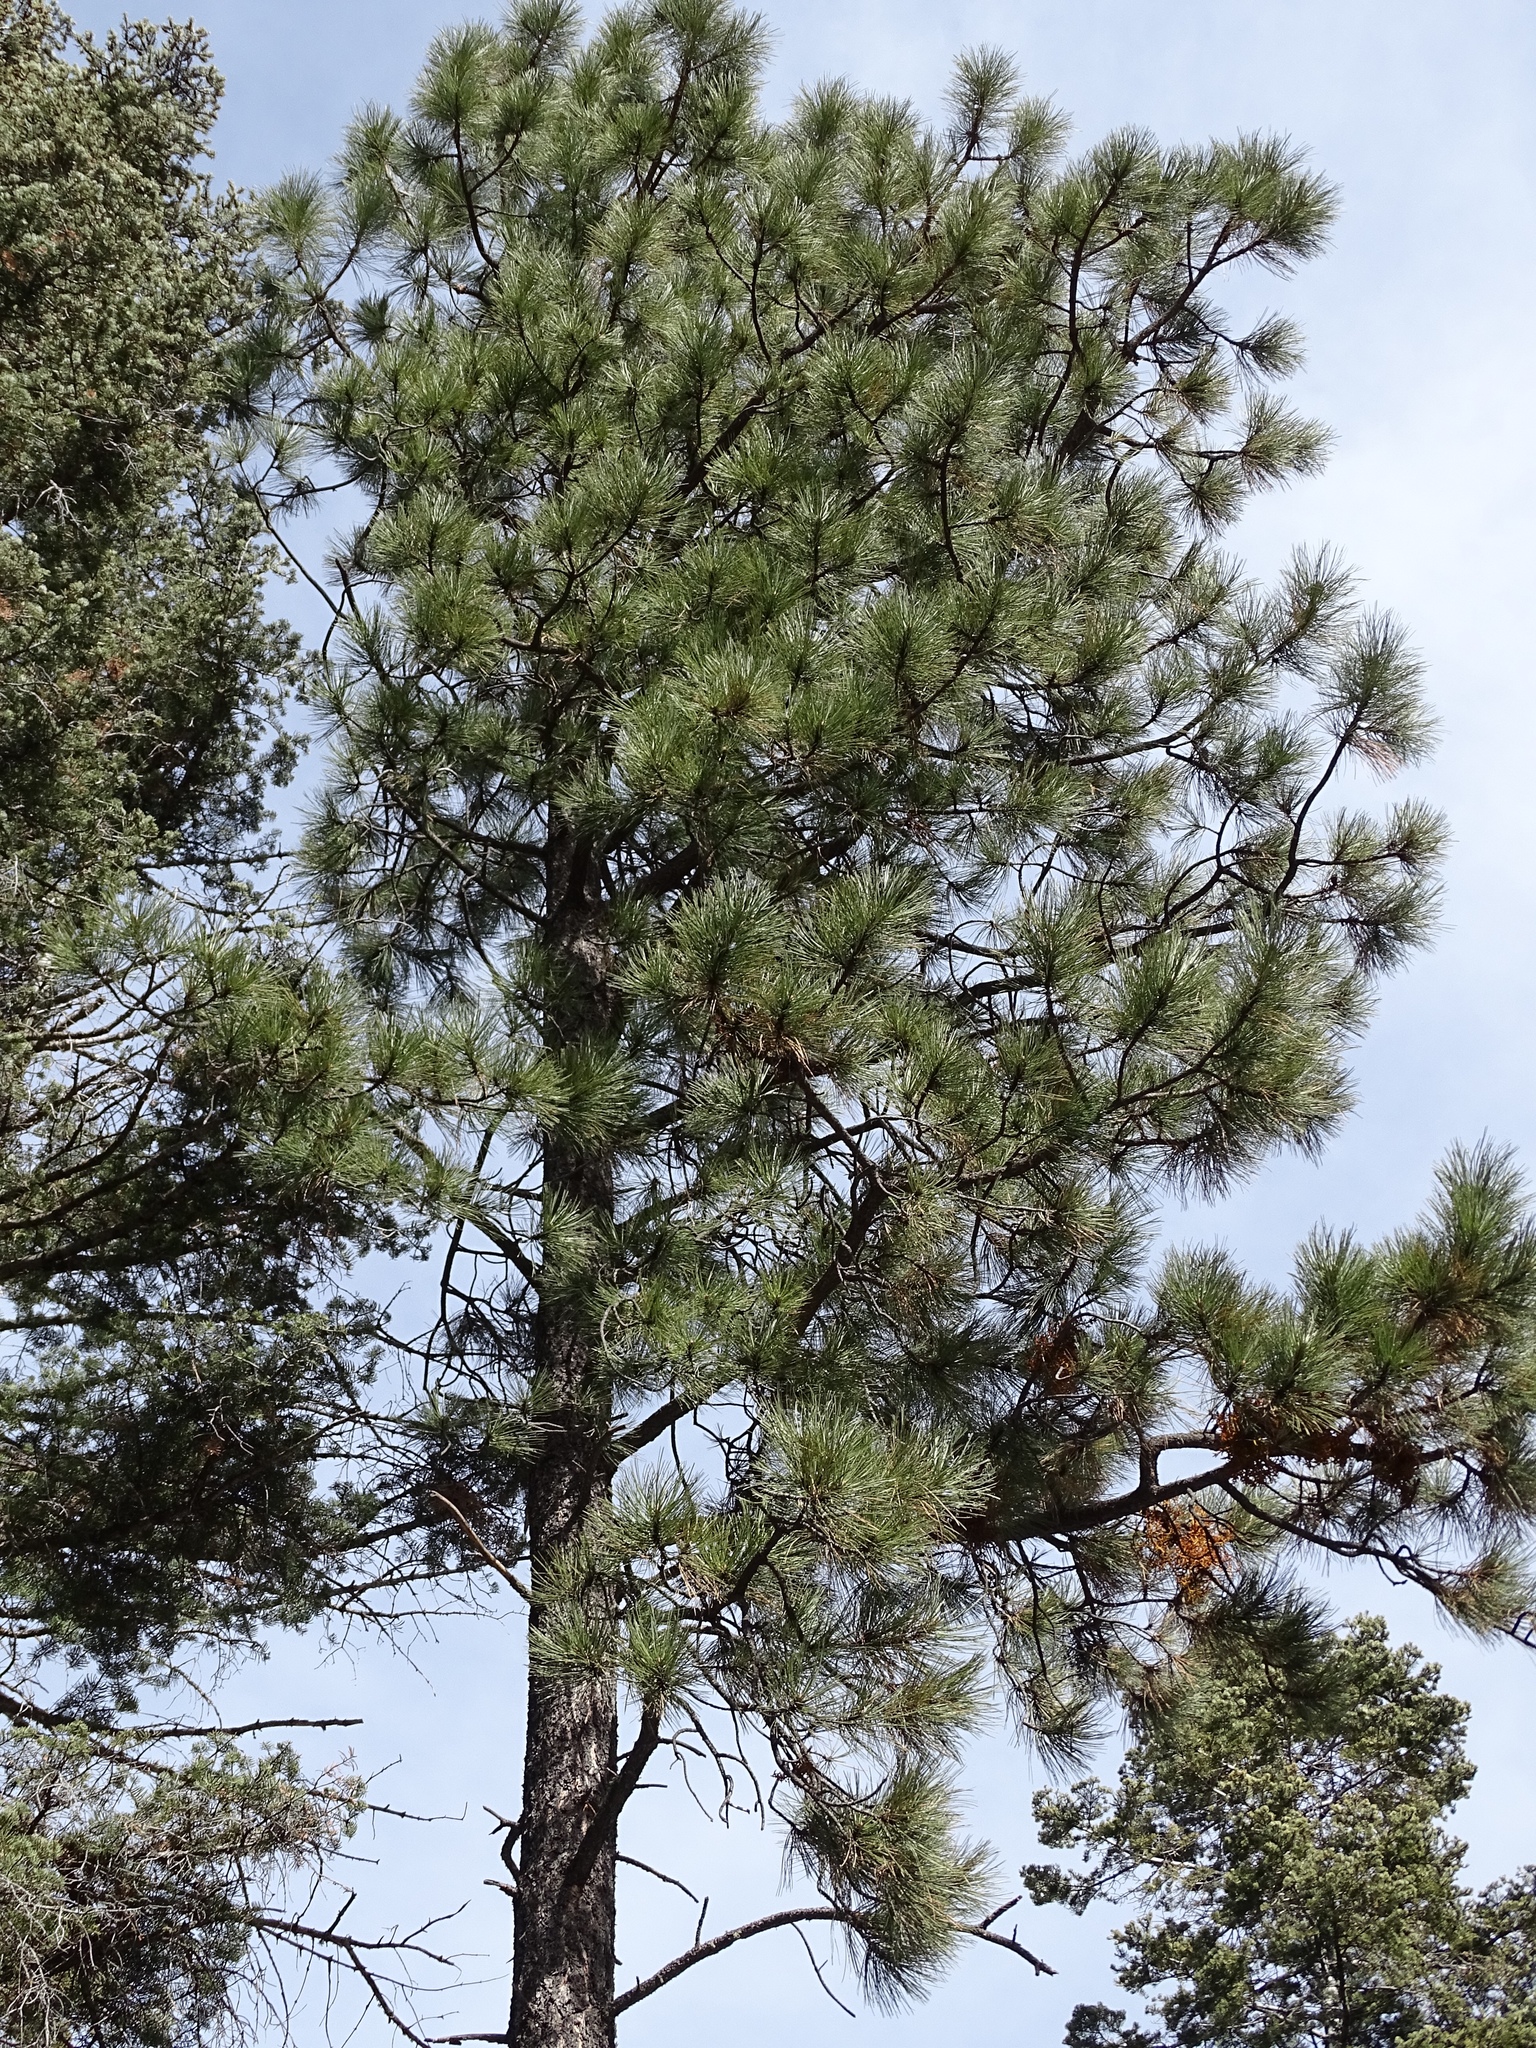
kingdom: Plantae
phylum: Tracheophyta
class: Pinopsida
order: Pinales
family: Pinaceae
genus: Pinus
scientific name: Pinus ponderosa
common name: Western yellow-pine
